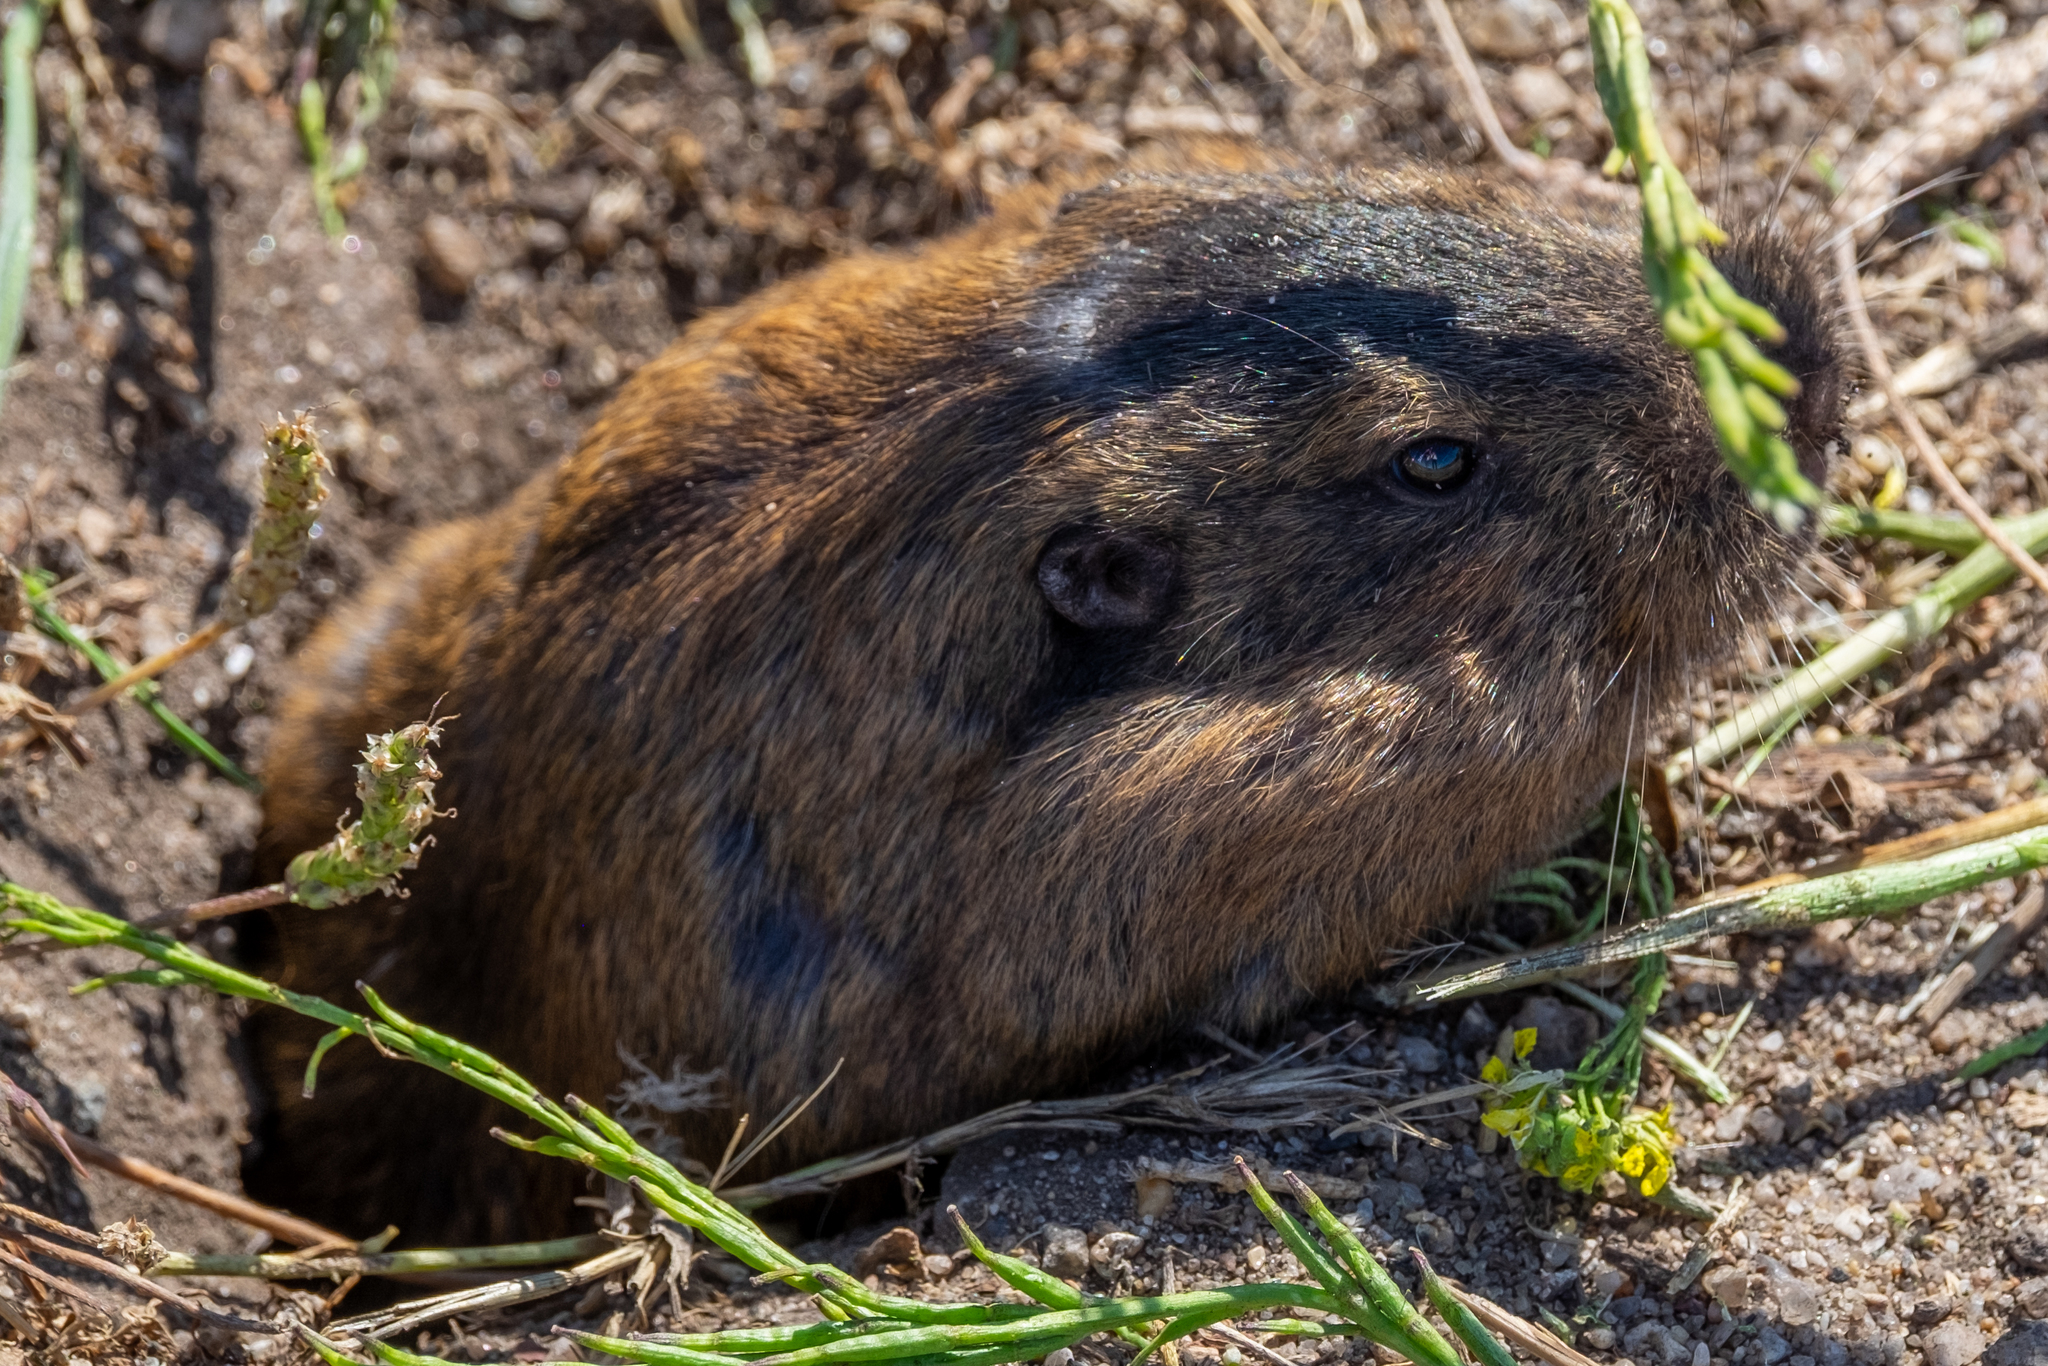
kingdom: Animalia
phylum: Chordata
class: Mammalia
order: Rodentia
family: Geomyidae
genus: Thomomys
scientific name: Thomomys bottae
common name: Botta's pocket gopher
